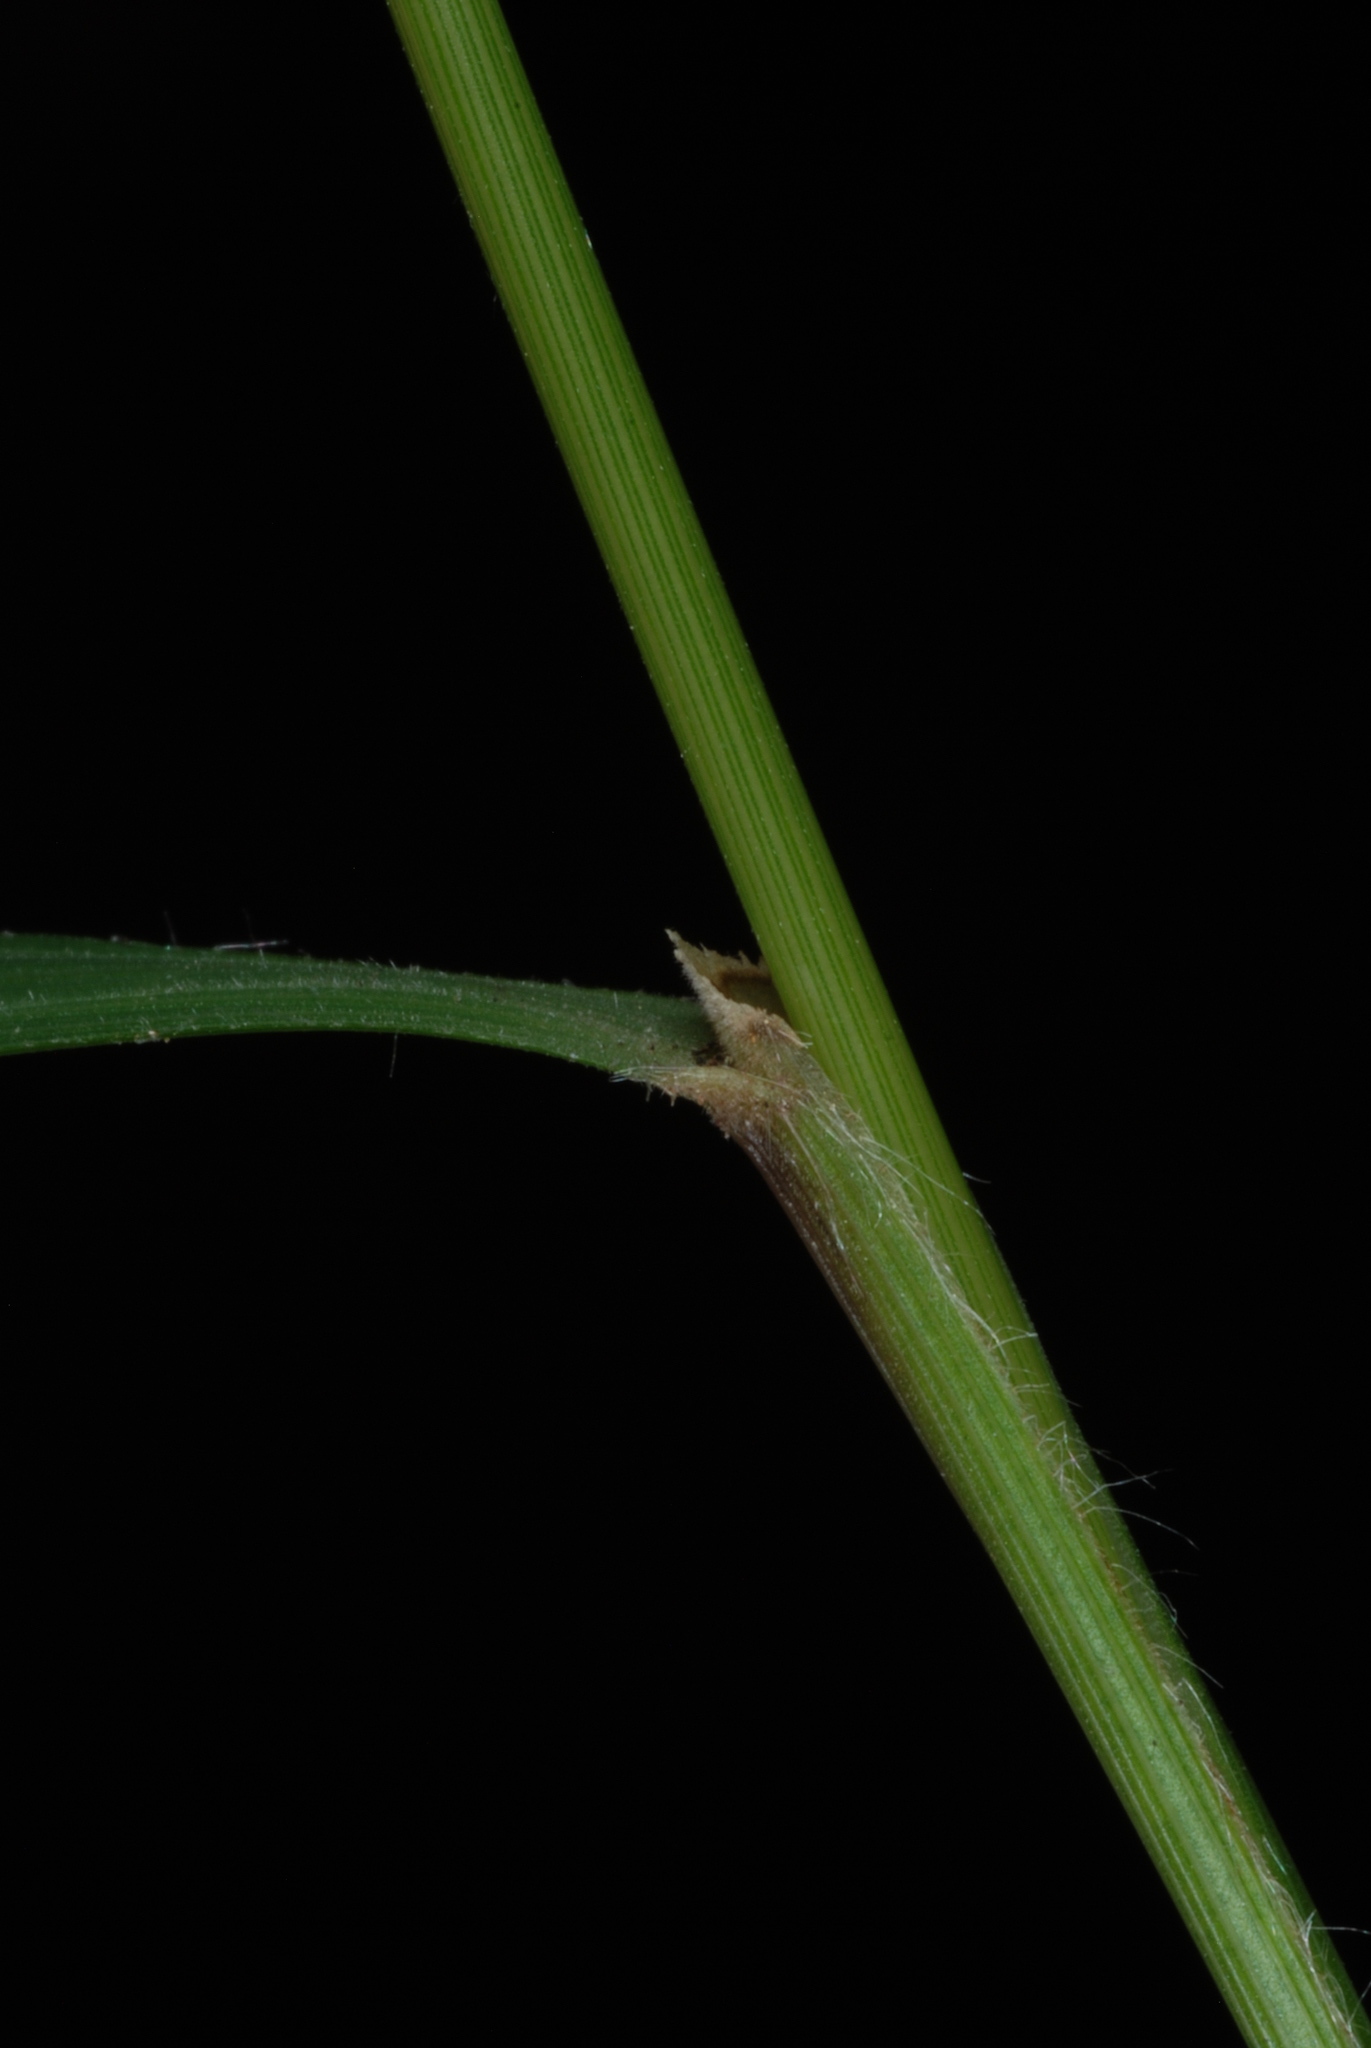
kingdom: Plantae
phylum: Tracheophyta
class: Liliopsida
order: Poales
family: Poaceae
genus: Brachypodium
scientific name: Brachypodium sylvaticum
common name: False-brome
